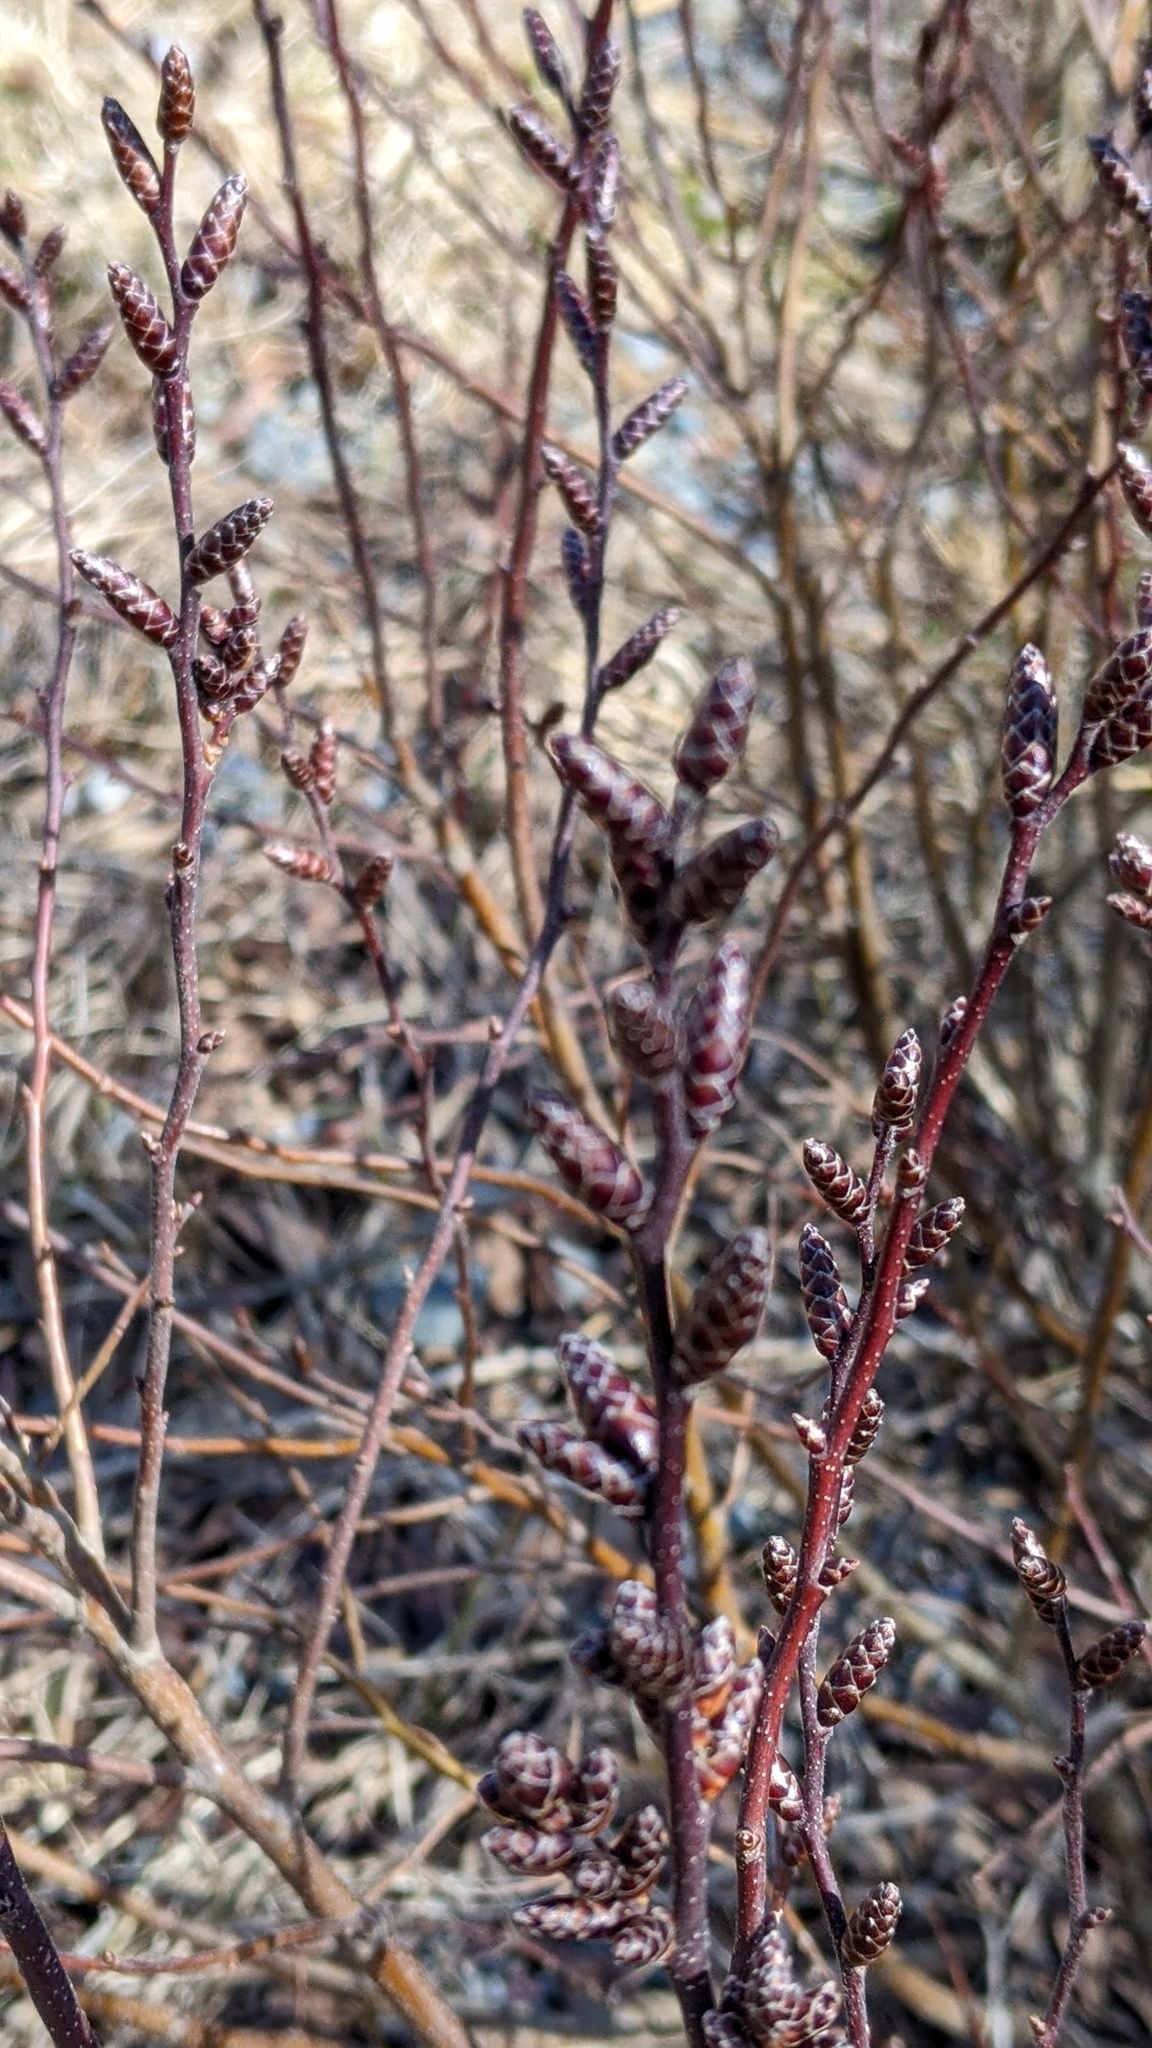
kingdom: Plantae
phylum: Tracheophyta
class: Magnoliopsida
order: Fagales
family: Myricaceae
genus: Myrica
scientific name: Myrica gale
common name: Sweet gale
